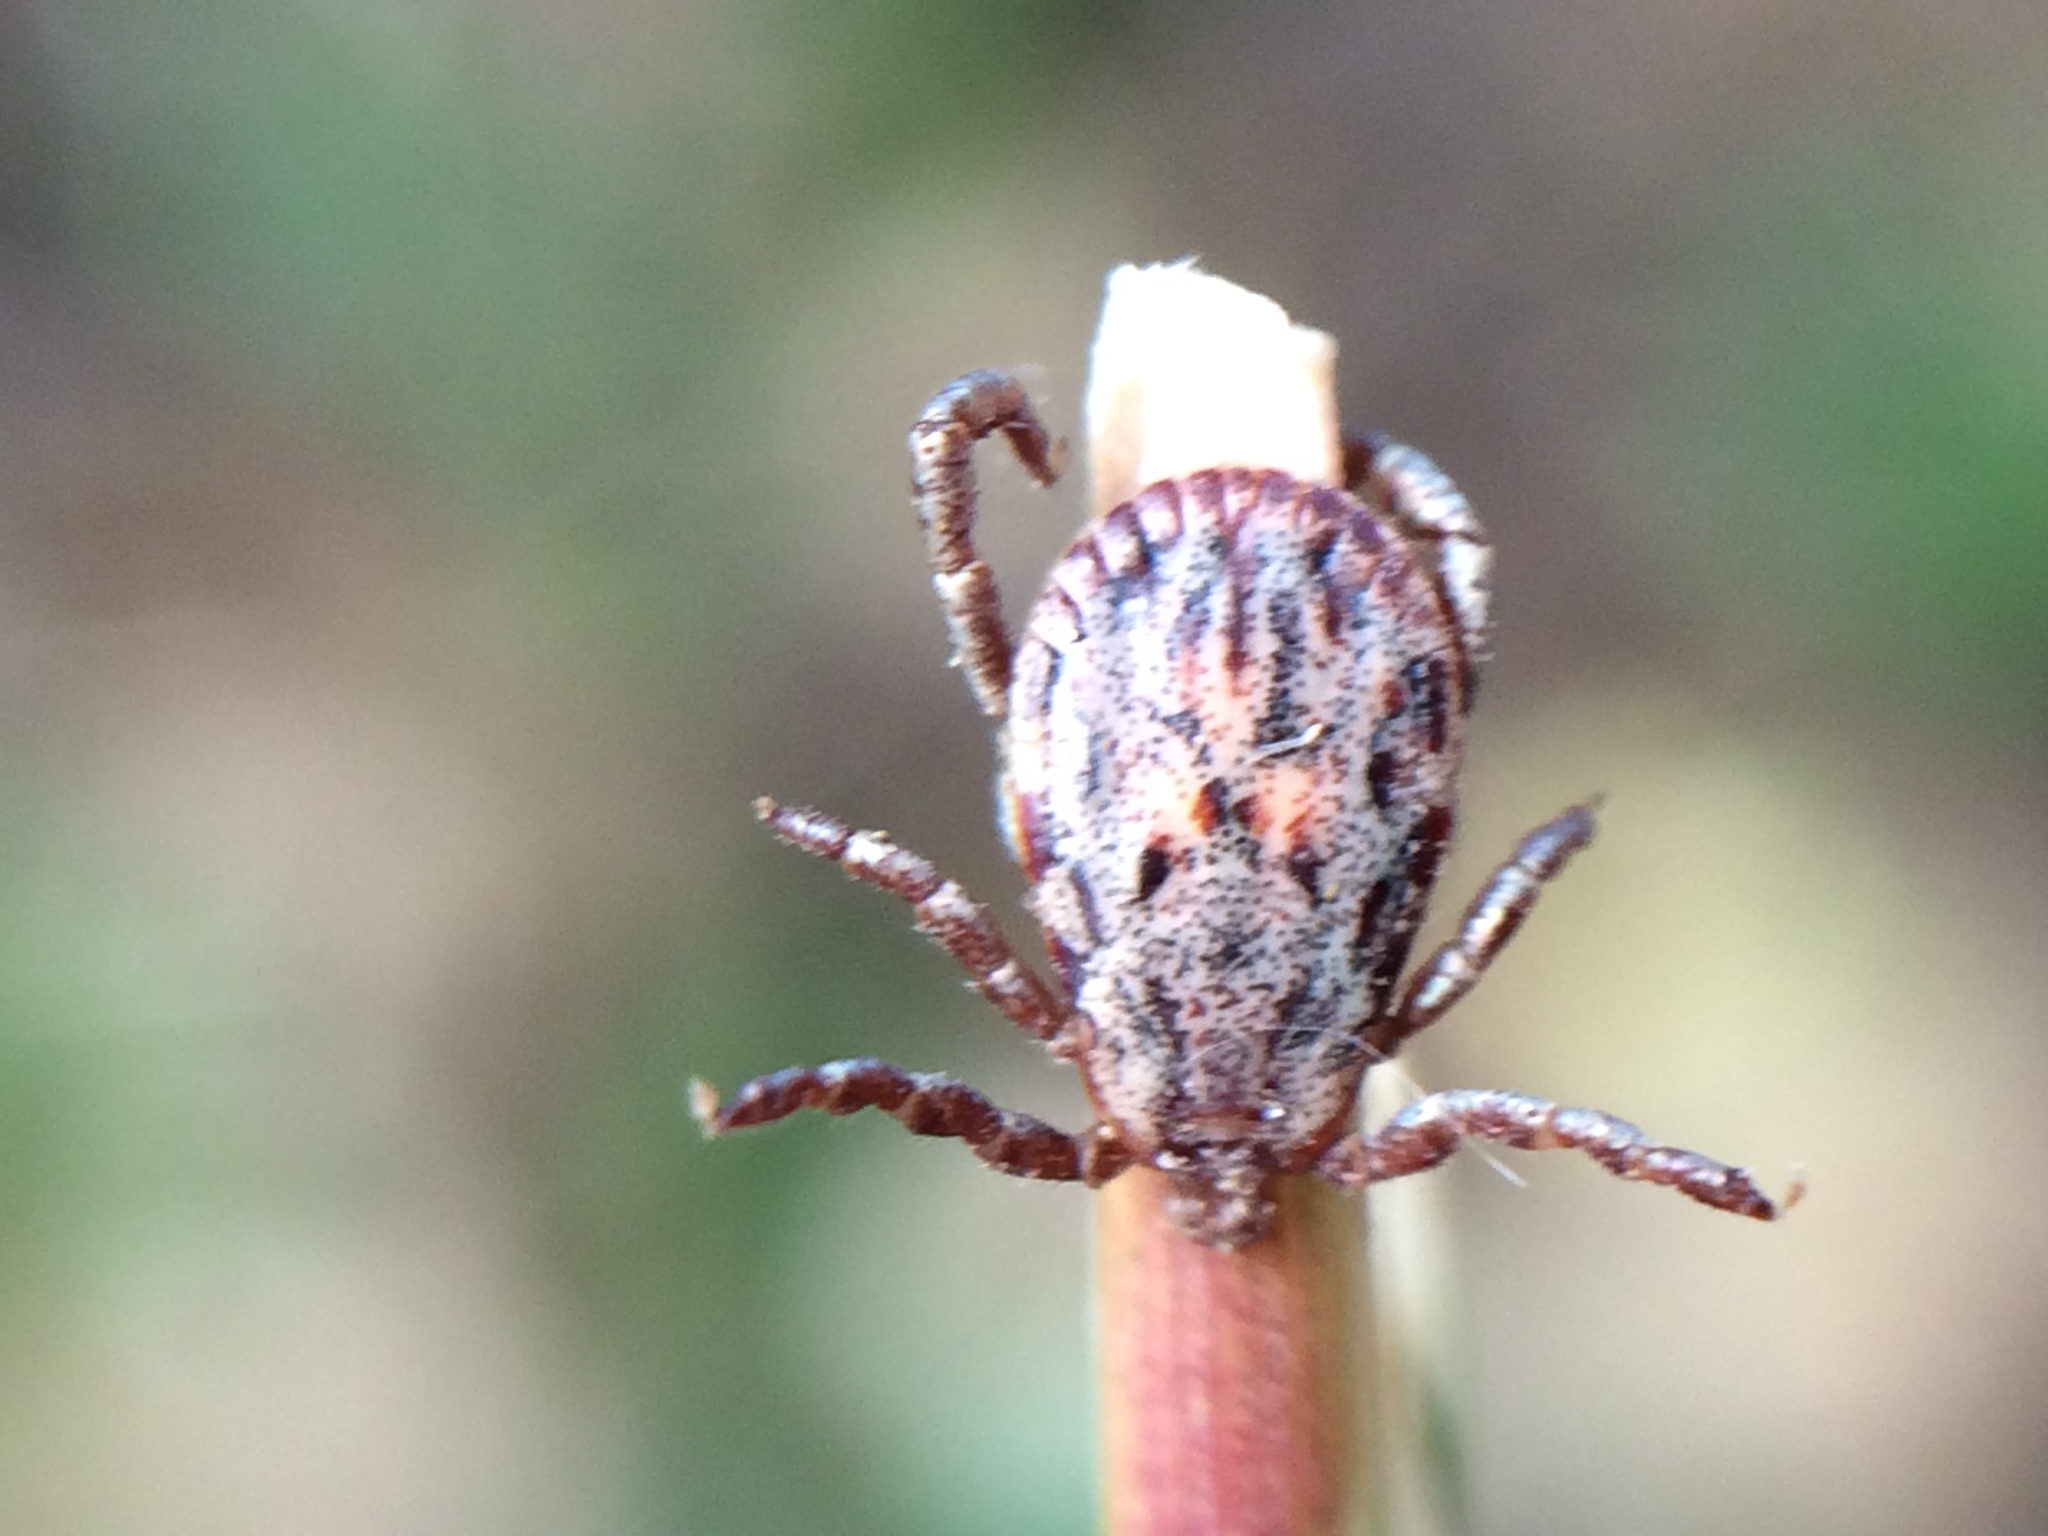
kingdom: Animalia
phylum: Arthropoda
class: Arachnida
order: Ixodida
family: Ixodidae
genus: Dermacentor
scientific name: Dermacentor occidentalis
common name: Net tick
